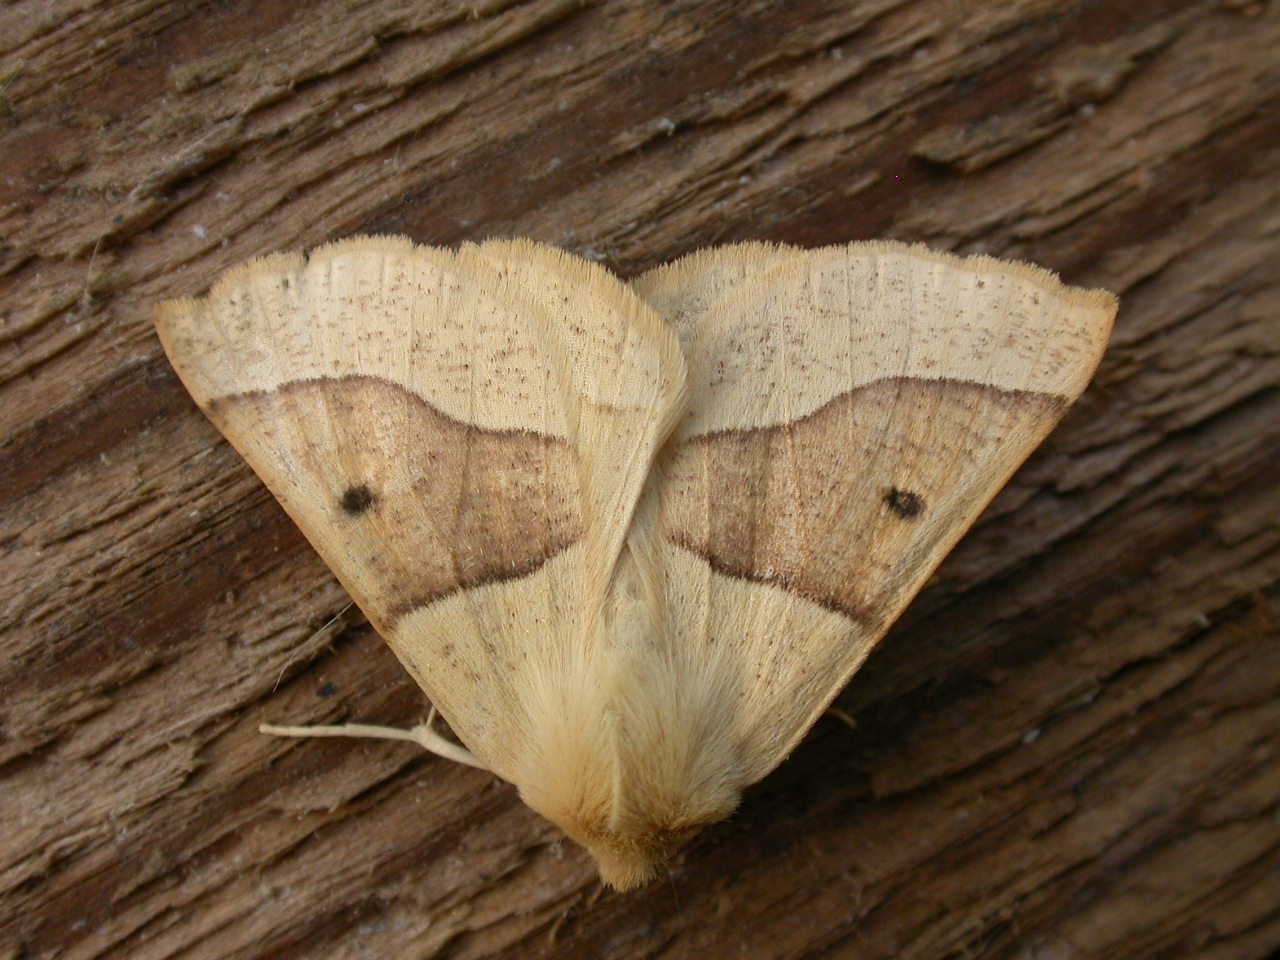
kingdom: Animalia
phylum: Arthropoda
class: Insecta
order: Lepidoptera
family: Geometridae
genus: Crocallis
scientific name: Crocallis elinguaria
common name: Scalloped oak
